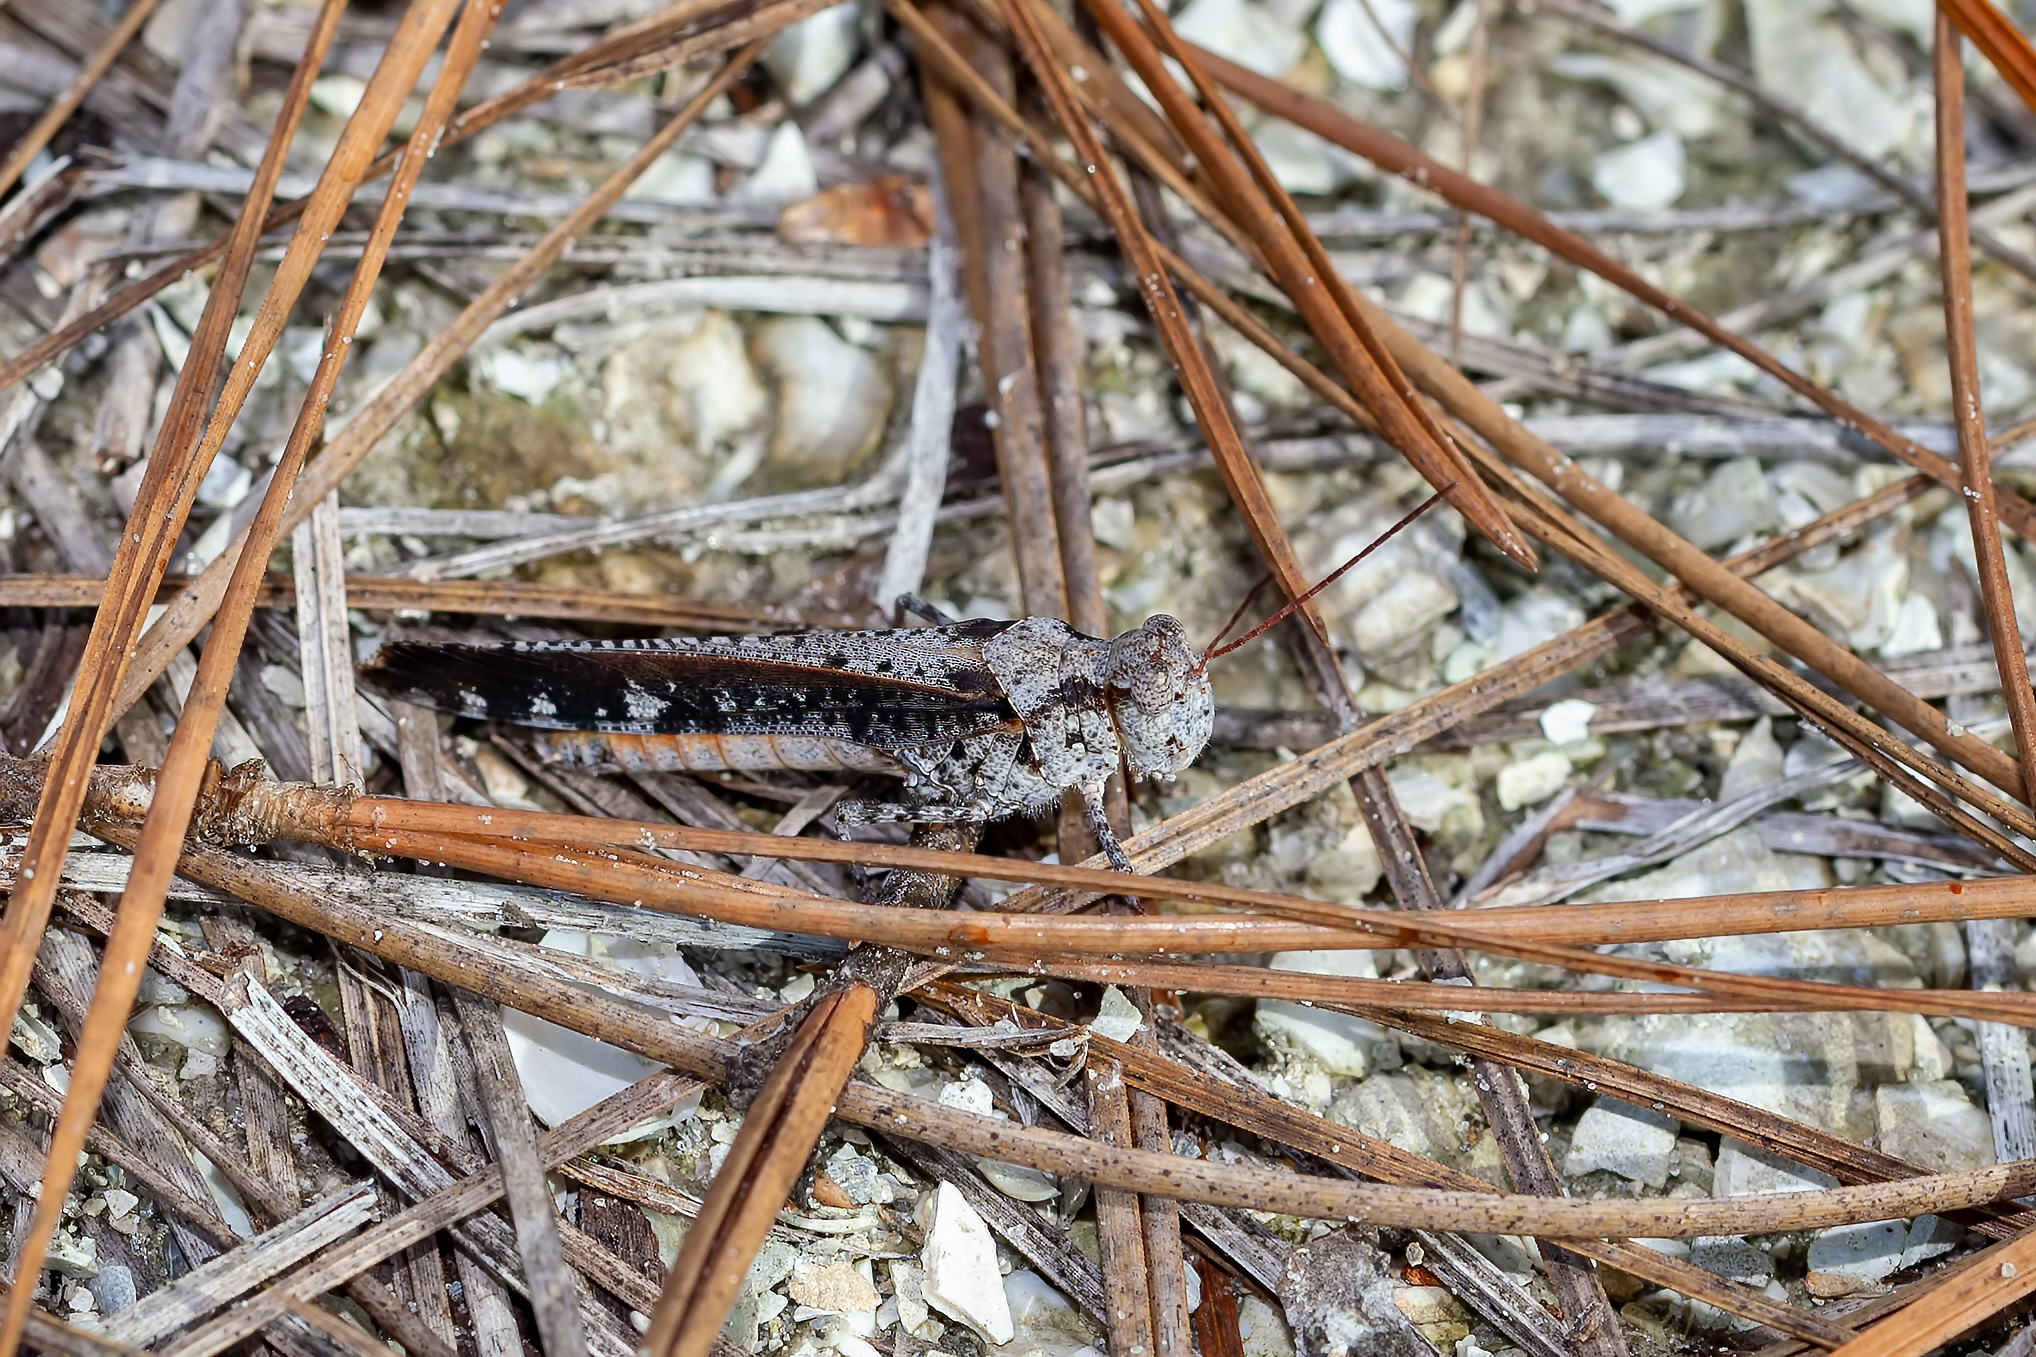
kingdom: Animalia
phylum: Arthropoda
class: Insecta
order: Orthoptera
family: Acrididae
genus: Spharagemon
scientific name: Spharagemon marmoratum
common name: Marbled grasshopper
